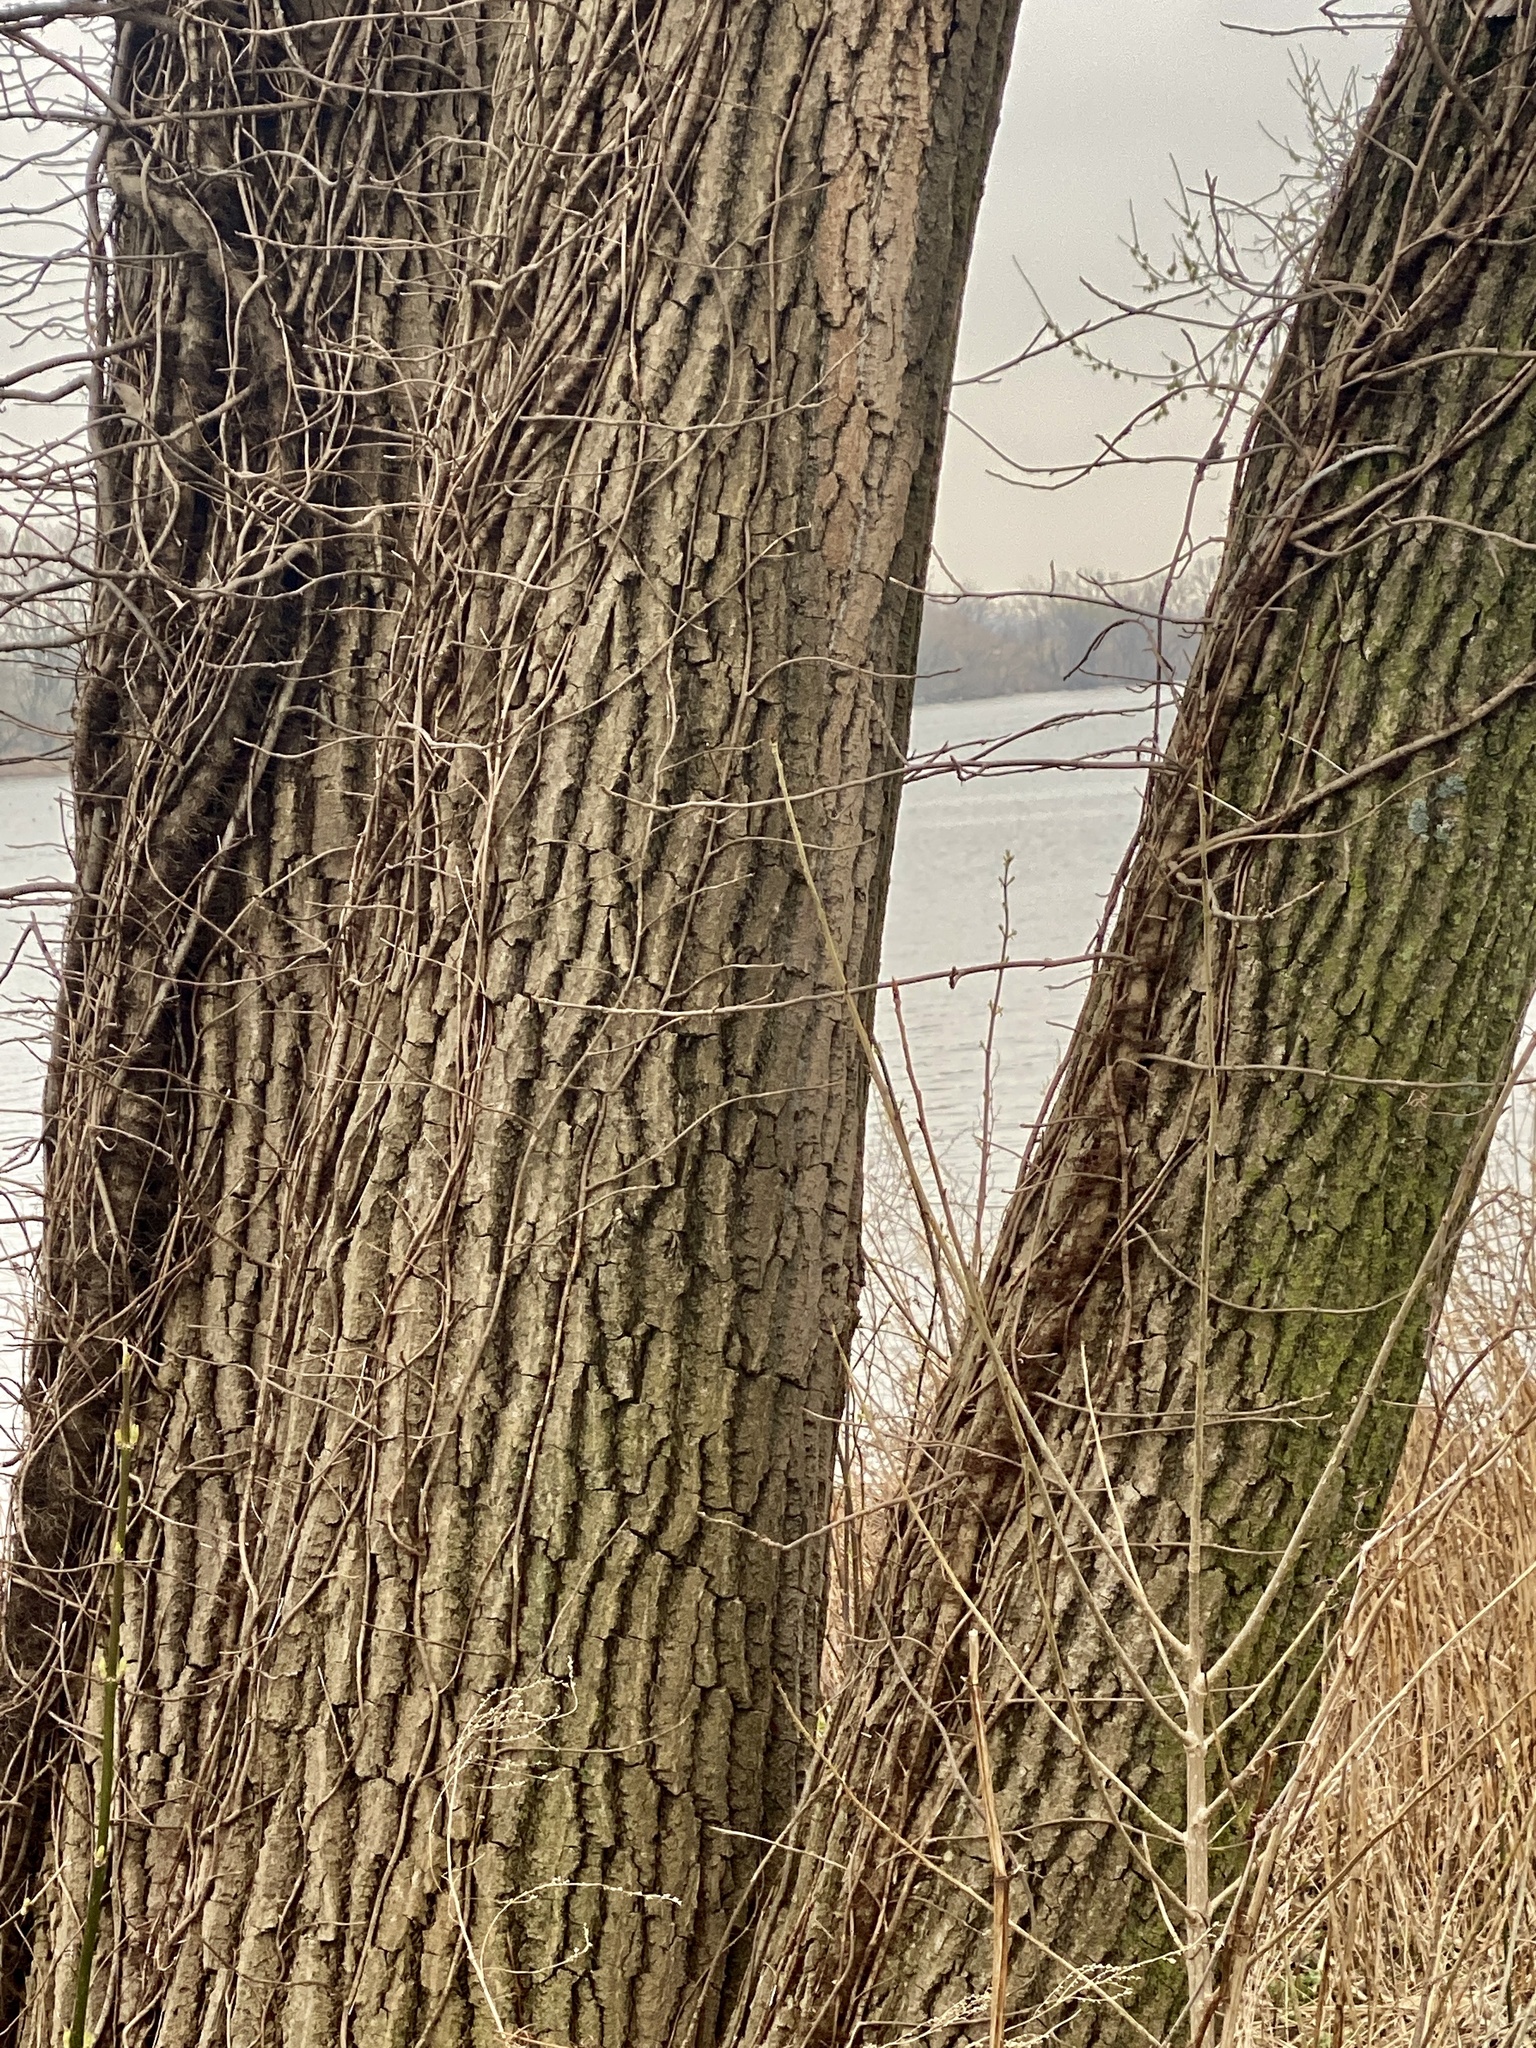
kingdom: Plantae
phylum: Tracheophyta
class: Magnoliopsida
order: Malpighiales
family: Salicaceae
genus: Populus
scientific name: Populus deltoides
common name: Eastern cottonwood
